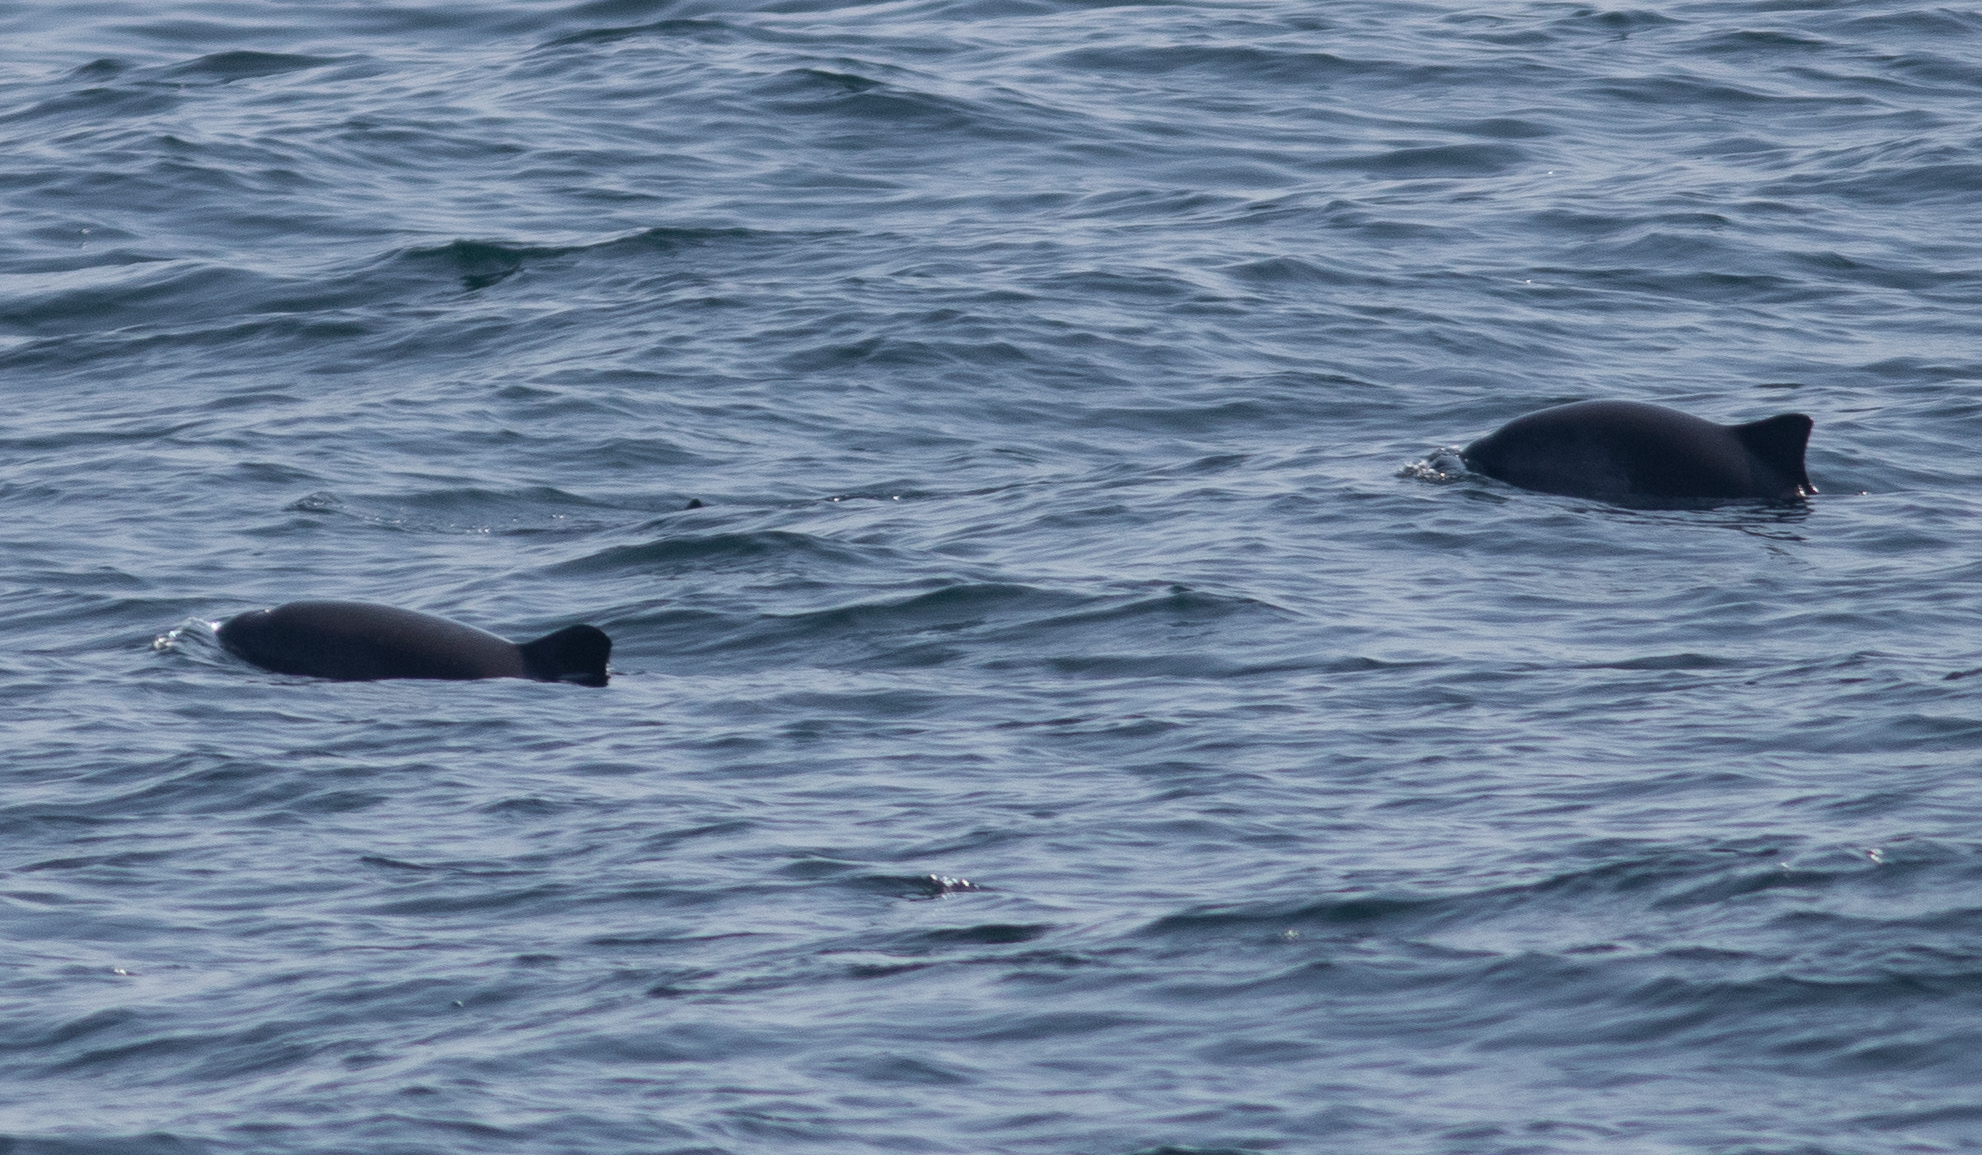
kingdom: Animalia
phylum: Chordata
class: Mammalia
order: Cetacea
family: Phocoenidae
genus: Phocoena
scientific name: Phocoena phocoena
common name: Harbor porpoise
